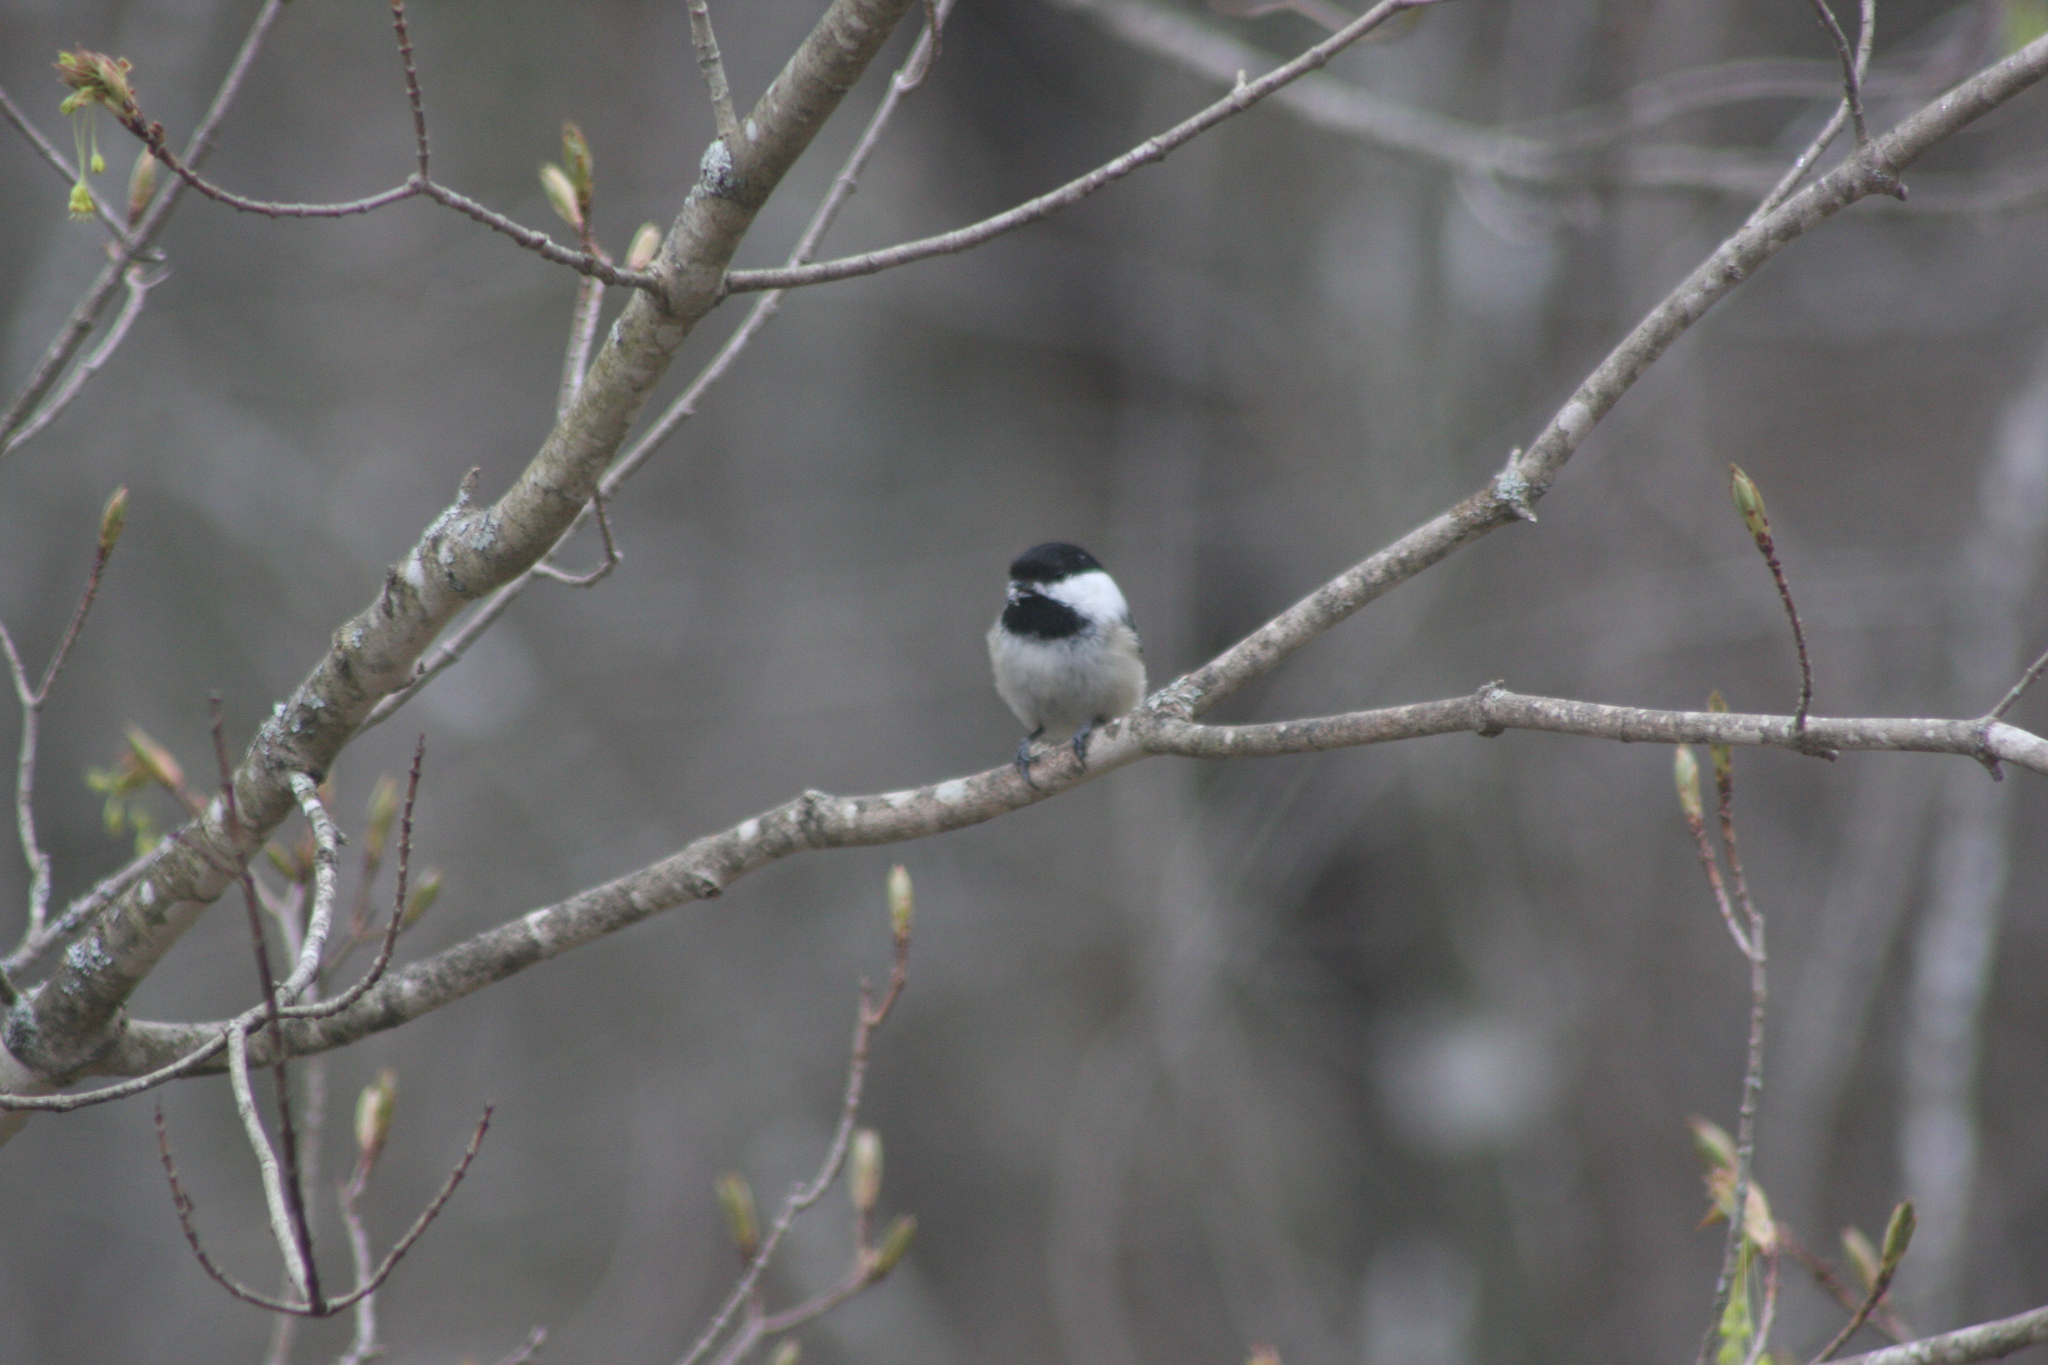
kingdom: Animalia
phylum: Chordata
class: Aves
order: Passeriformes
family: Paridae
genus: Poecile
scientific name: Poecile atricapillus
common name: Black-capped chickadee
